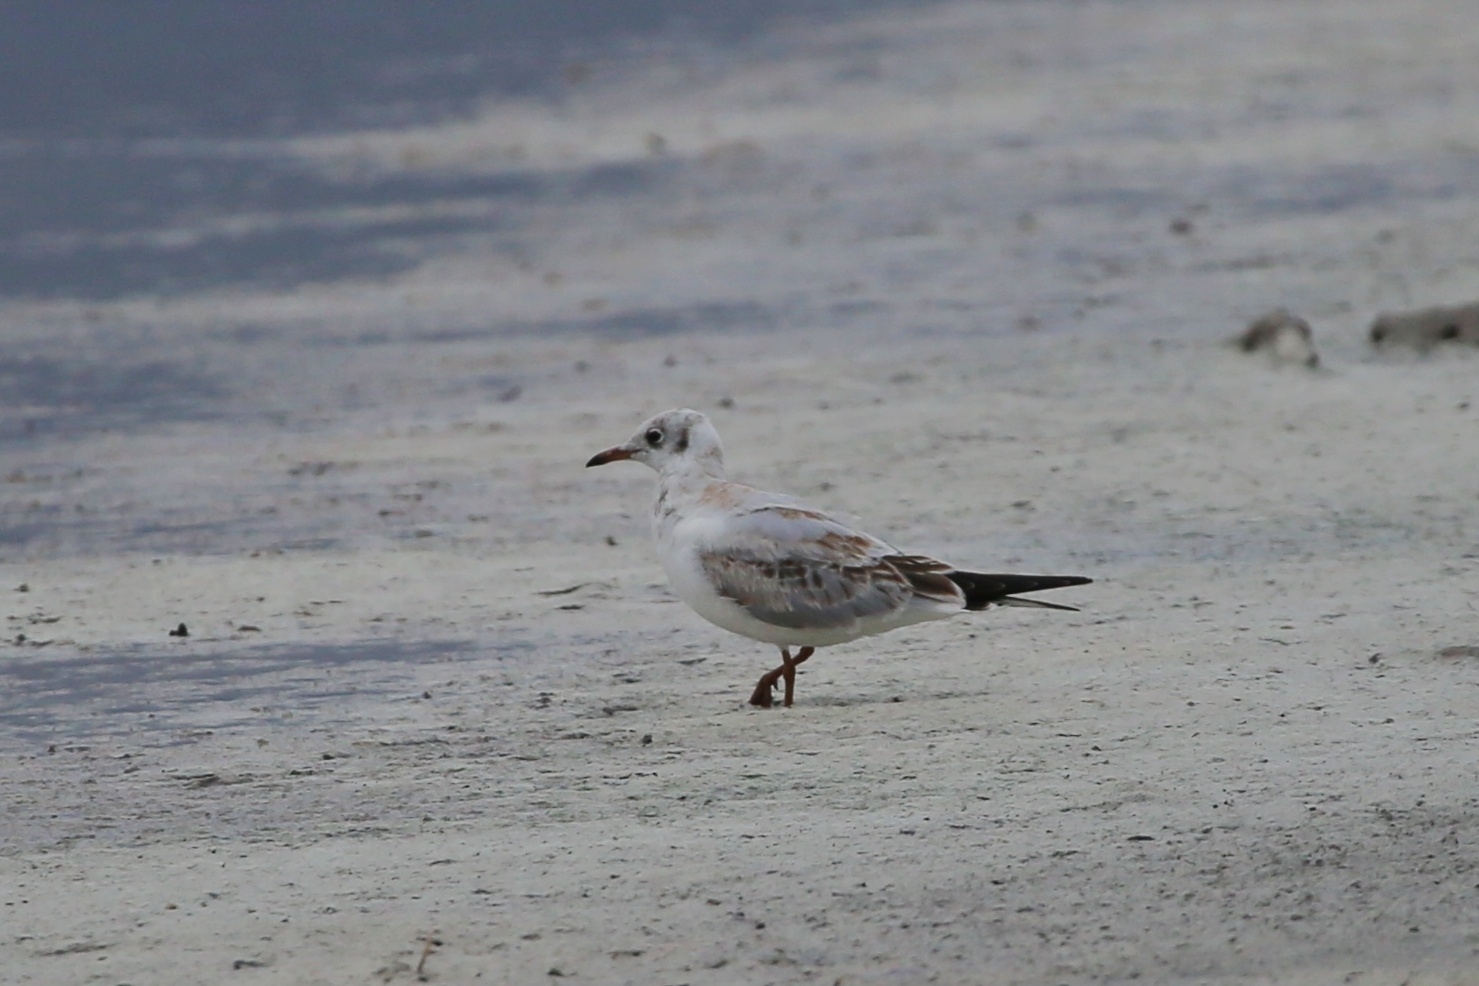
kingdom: Animalia
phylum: Chordata
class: Aves
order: Charadriiformes
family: Laridae
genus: Chroicocephalus
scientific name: Chroicocephalus ridibundus
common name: Black-headed gull
